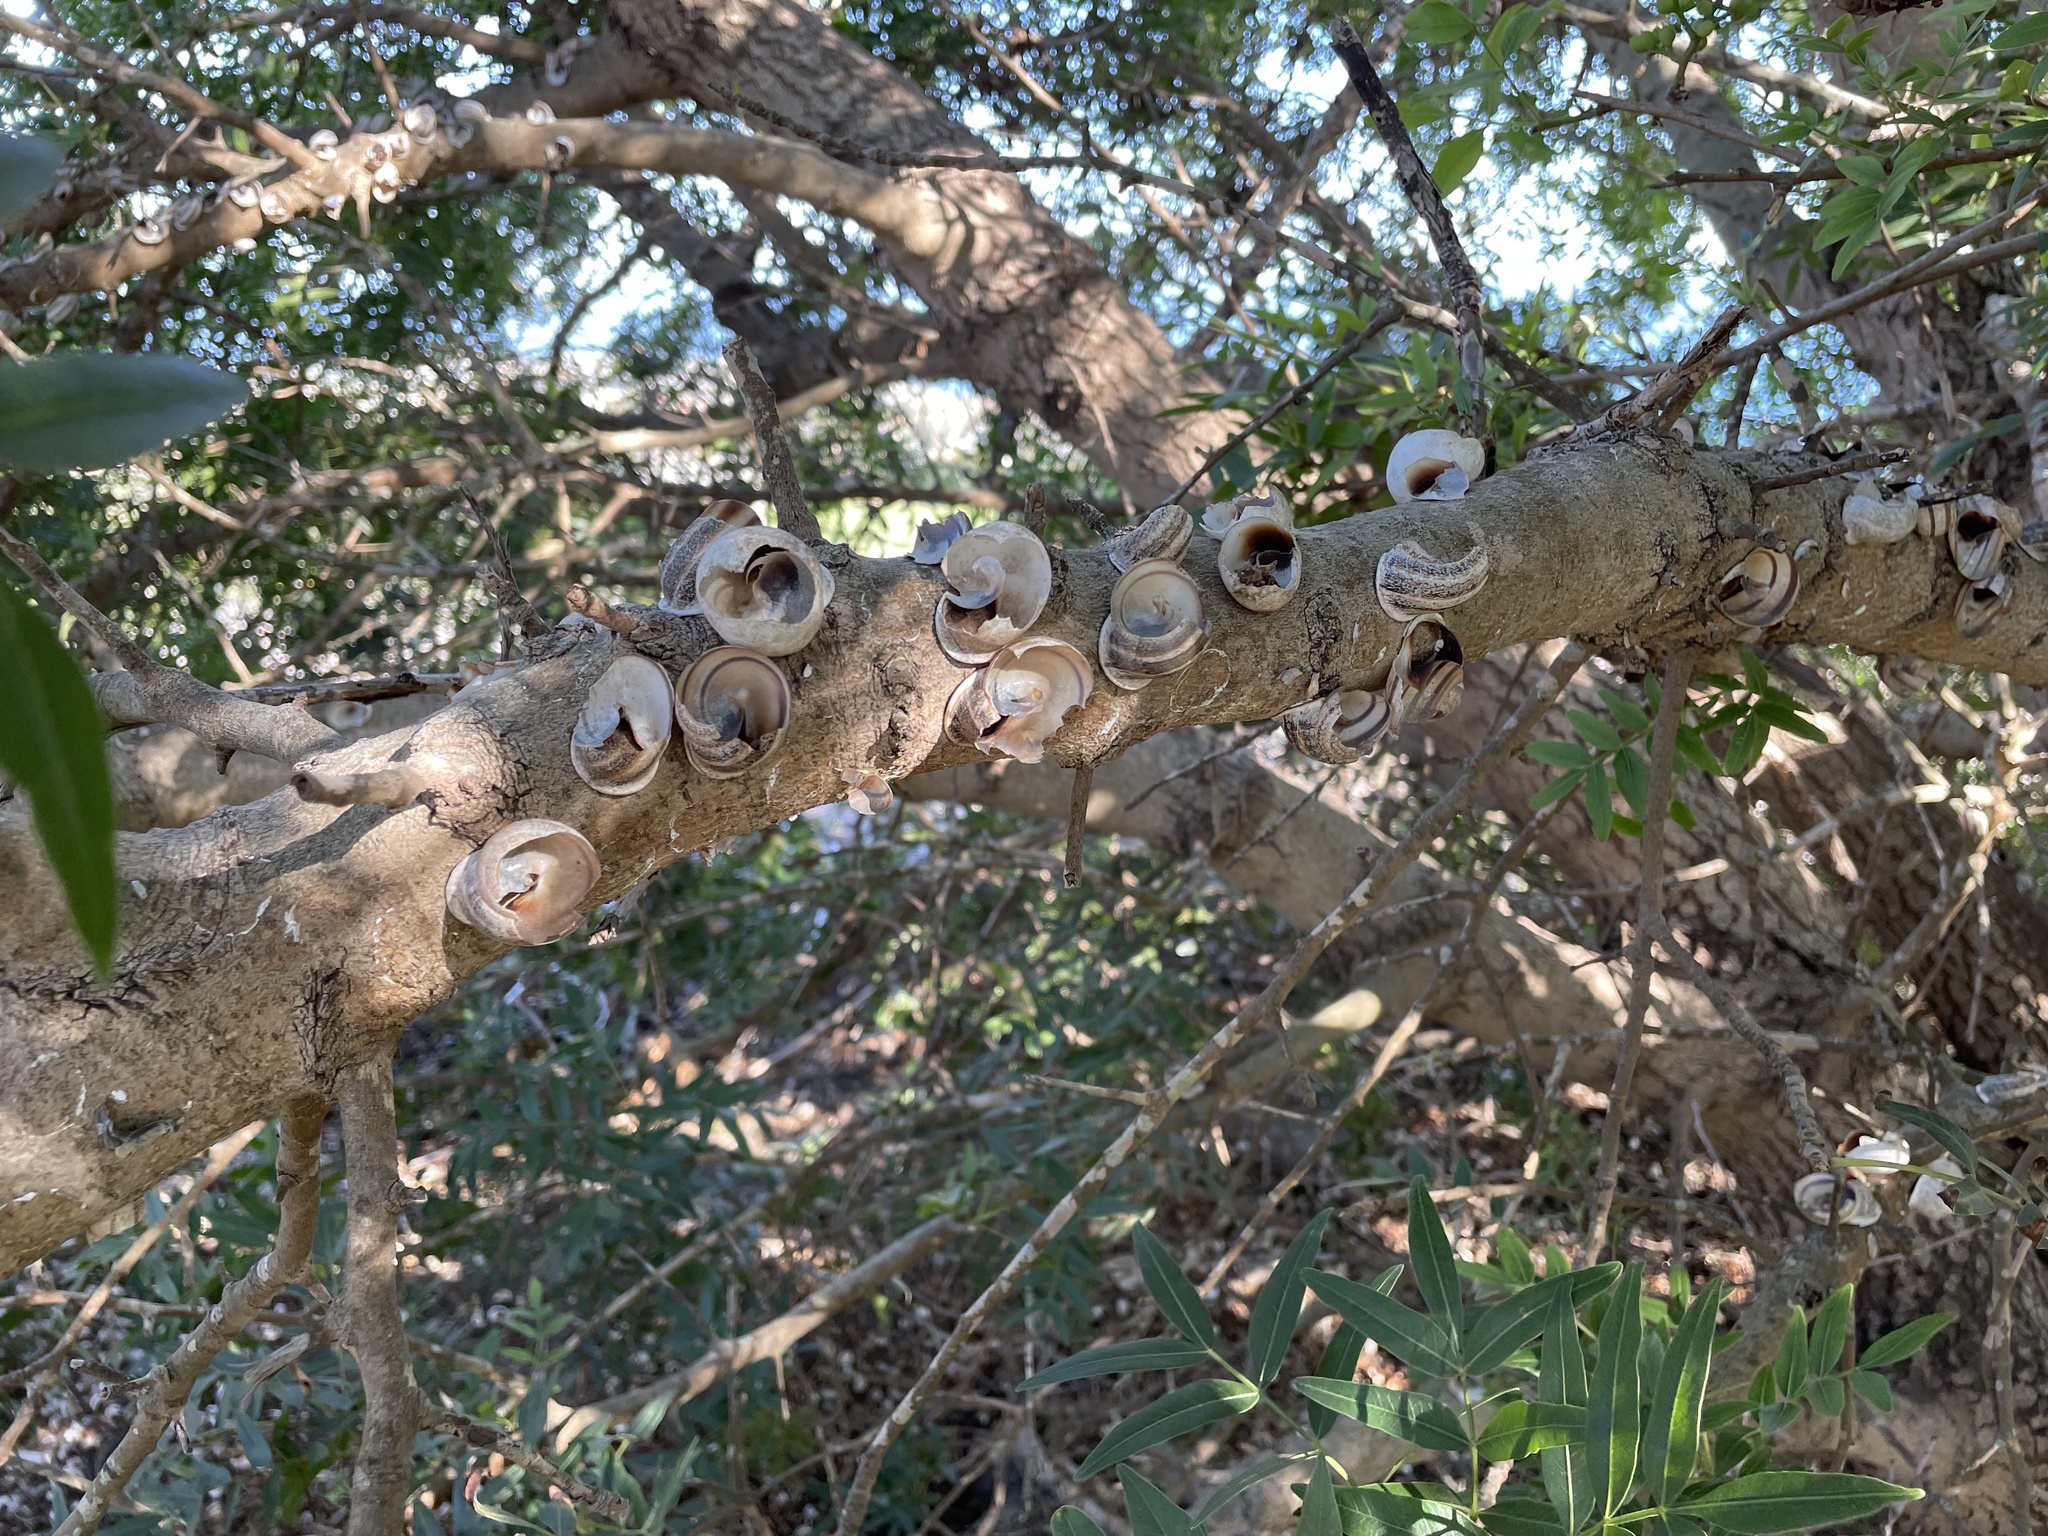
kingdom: Animalia
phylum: Mollusca
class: Gastropoda
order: Stylommatophora
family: Helicidae
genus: Otala
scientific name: Otala lactea
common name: Milk snail
